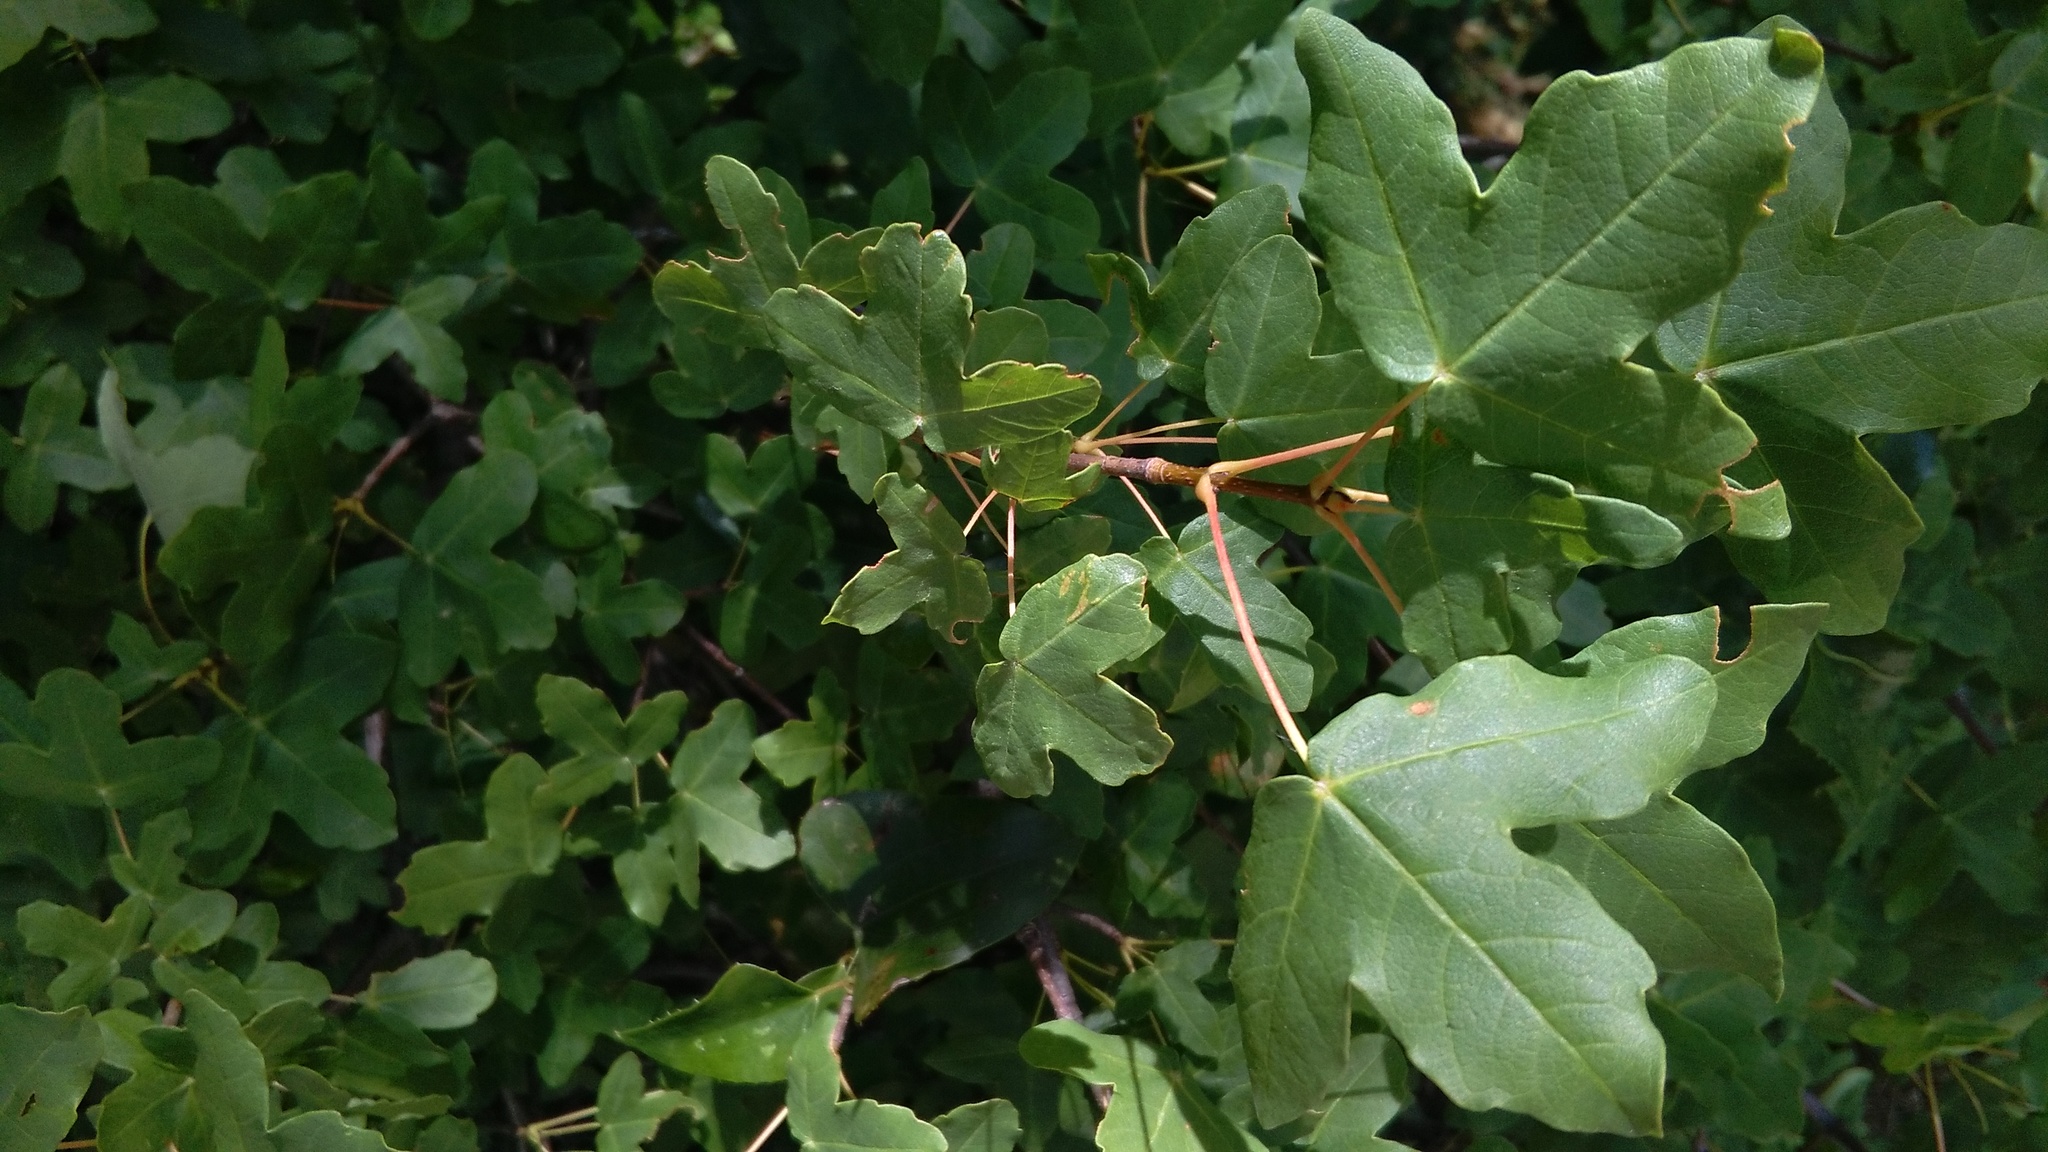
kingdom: Plantae
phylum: Tracheophyta
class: Magnoliopsida
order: Sapindales
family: Sapindaceae
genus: Acer
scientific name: Acer monspessulanum
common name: Montpellier maple
